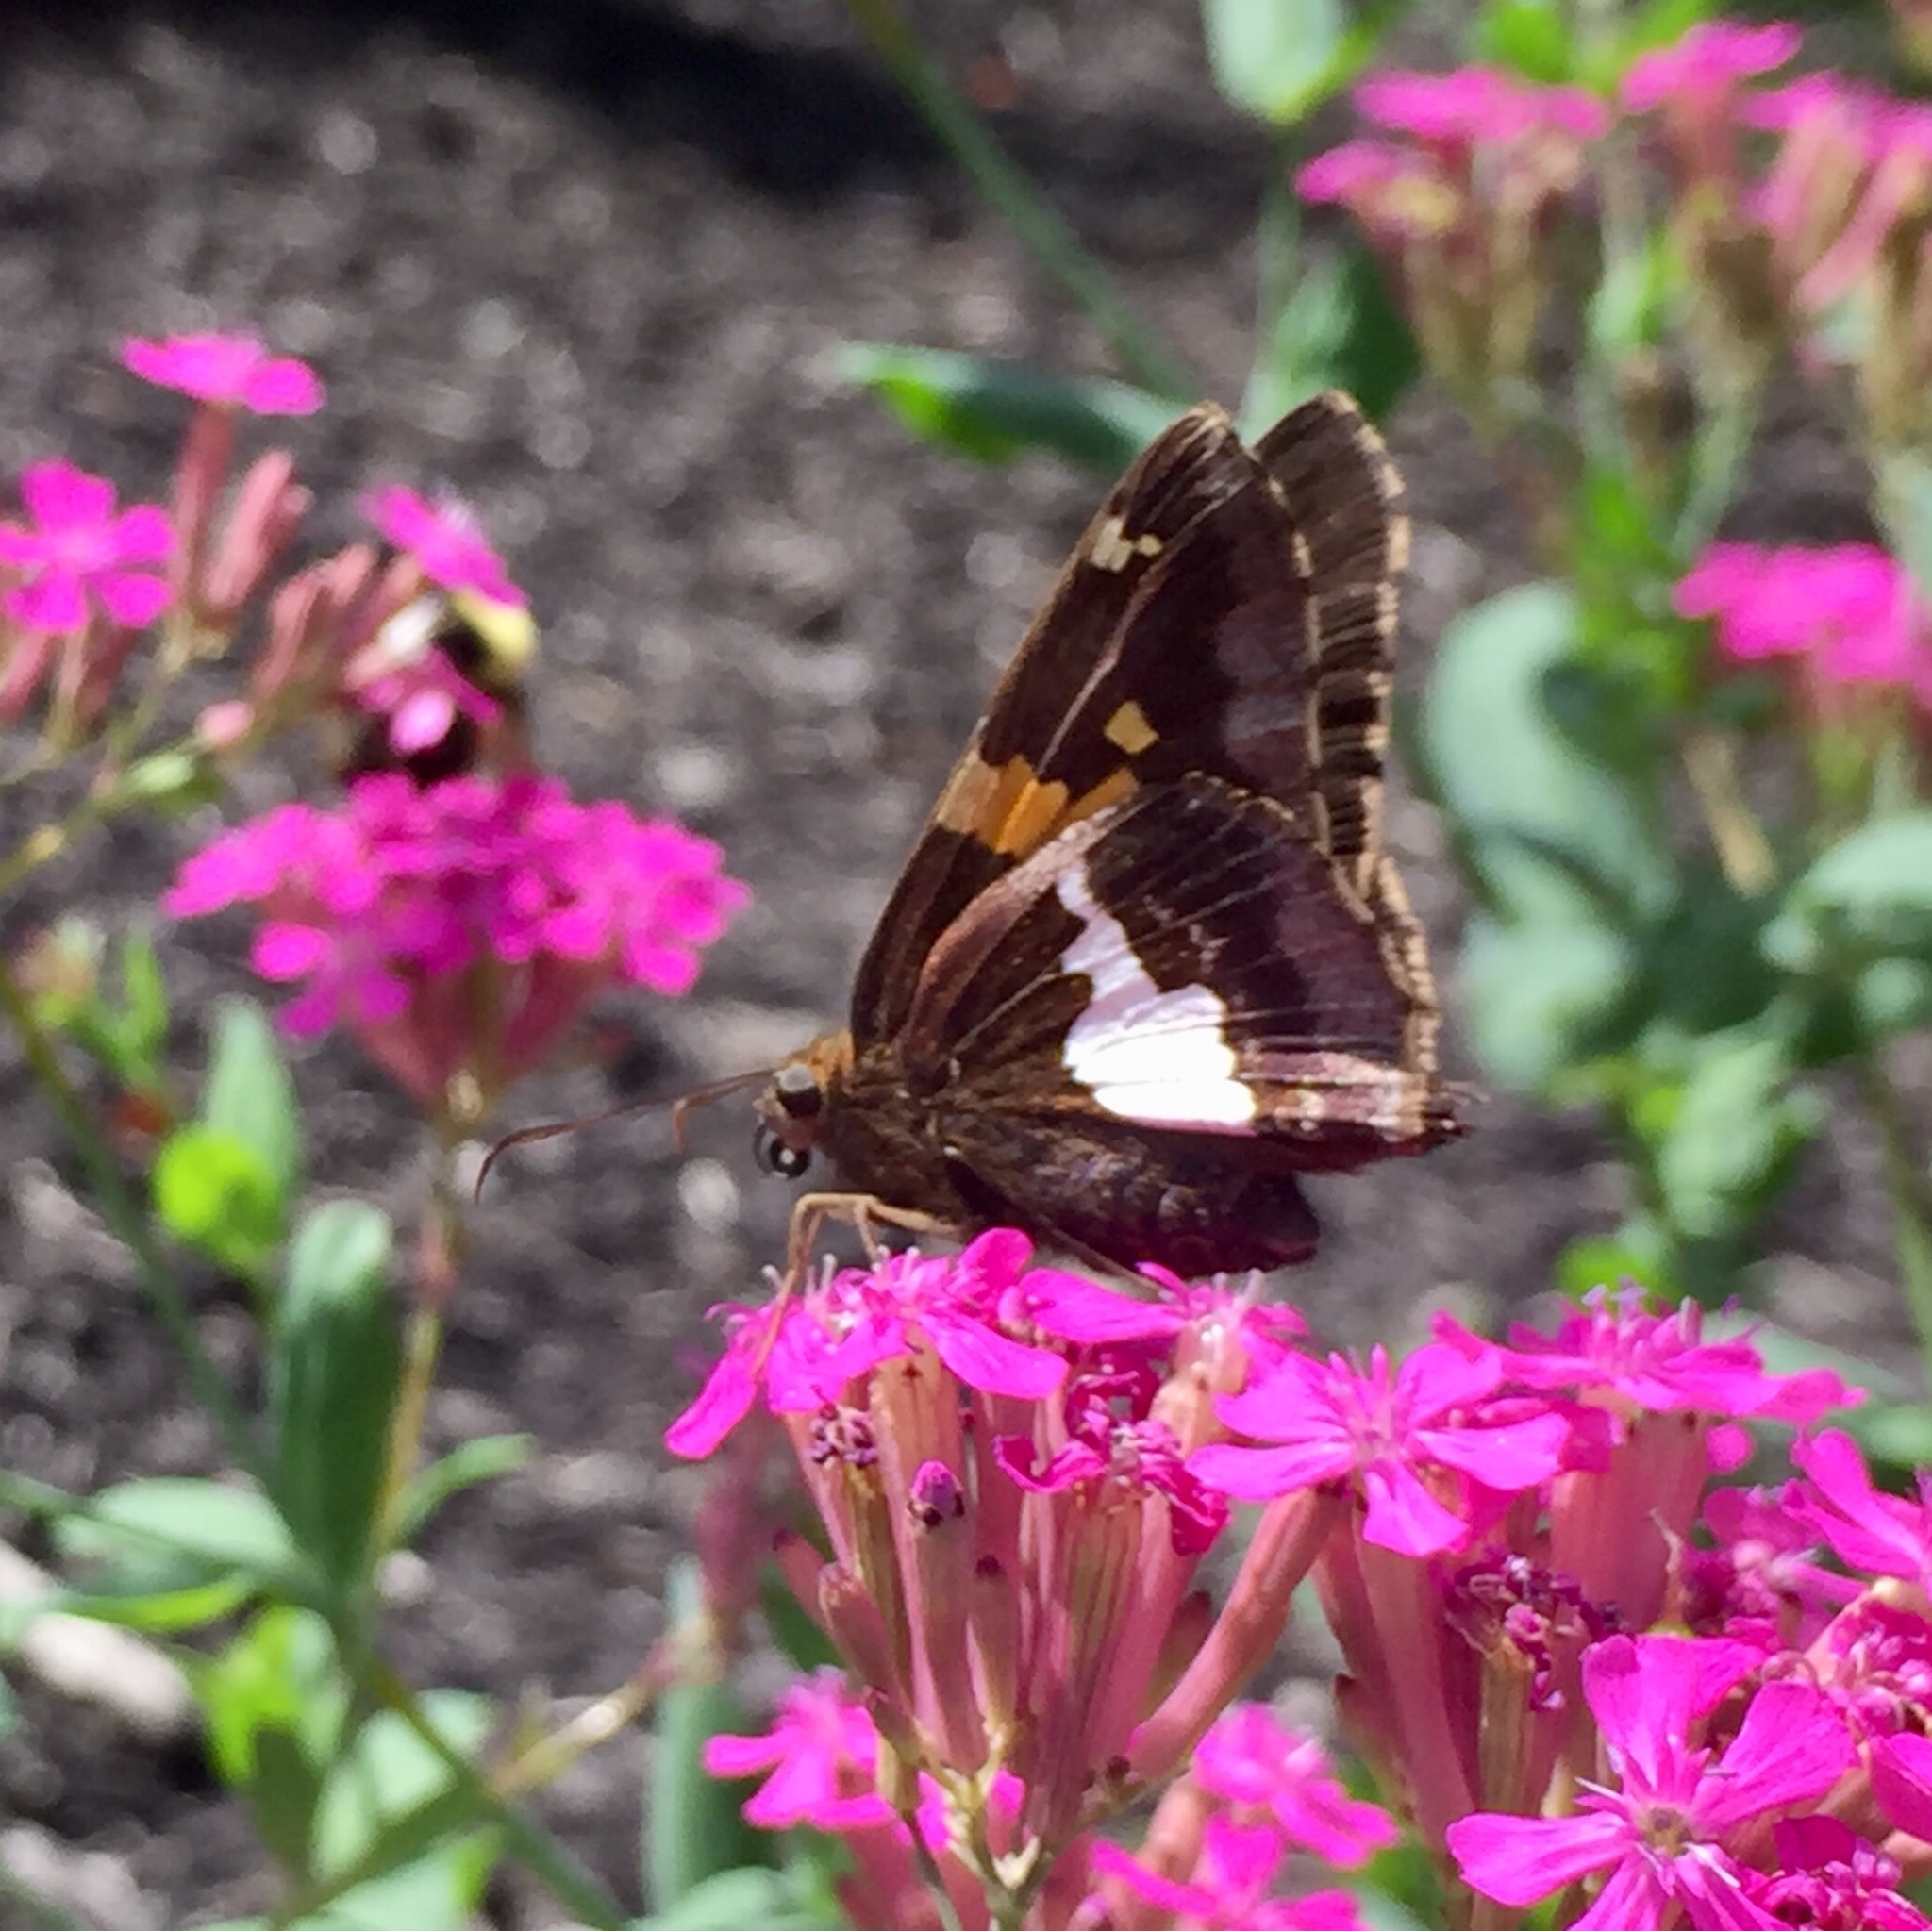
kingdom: Animalia
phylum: Arthropoda
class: Insecta
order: Lepidoptera
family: Hesperiidae
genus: Epargyreus
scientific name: Epargyreus clarus
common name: Silver-spotted skipper
